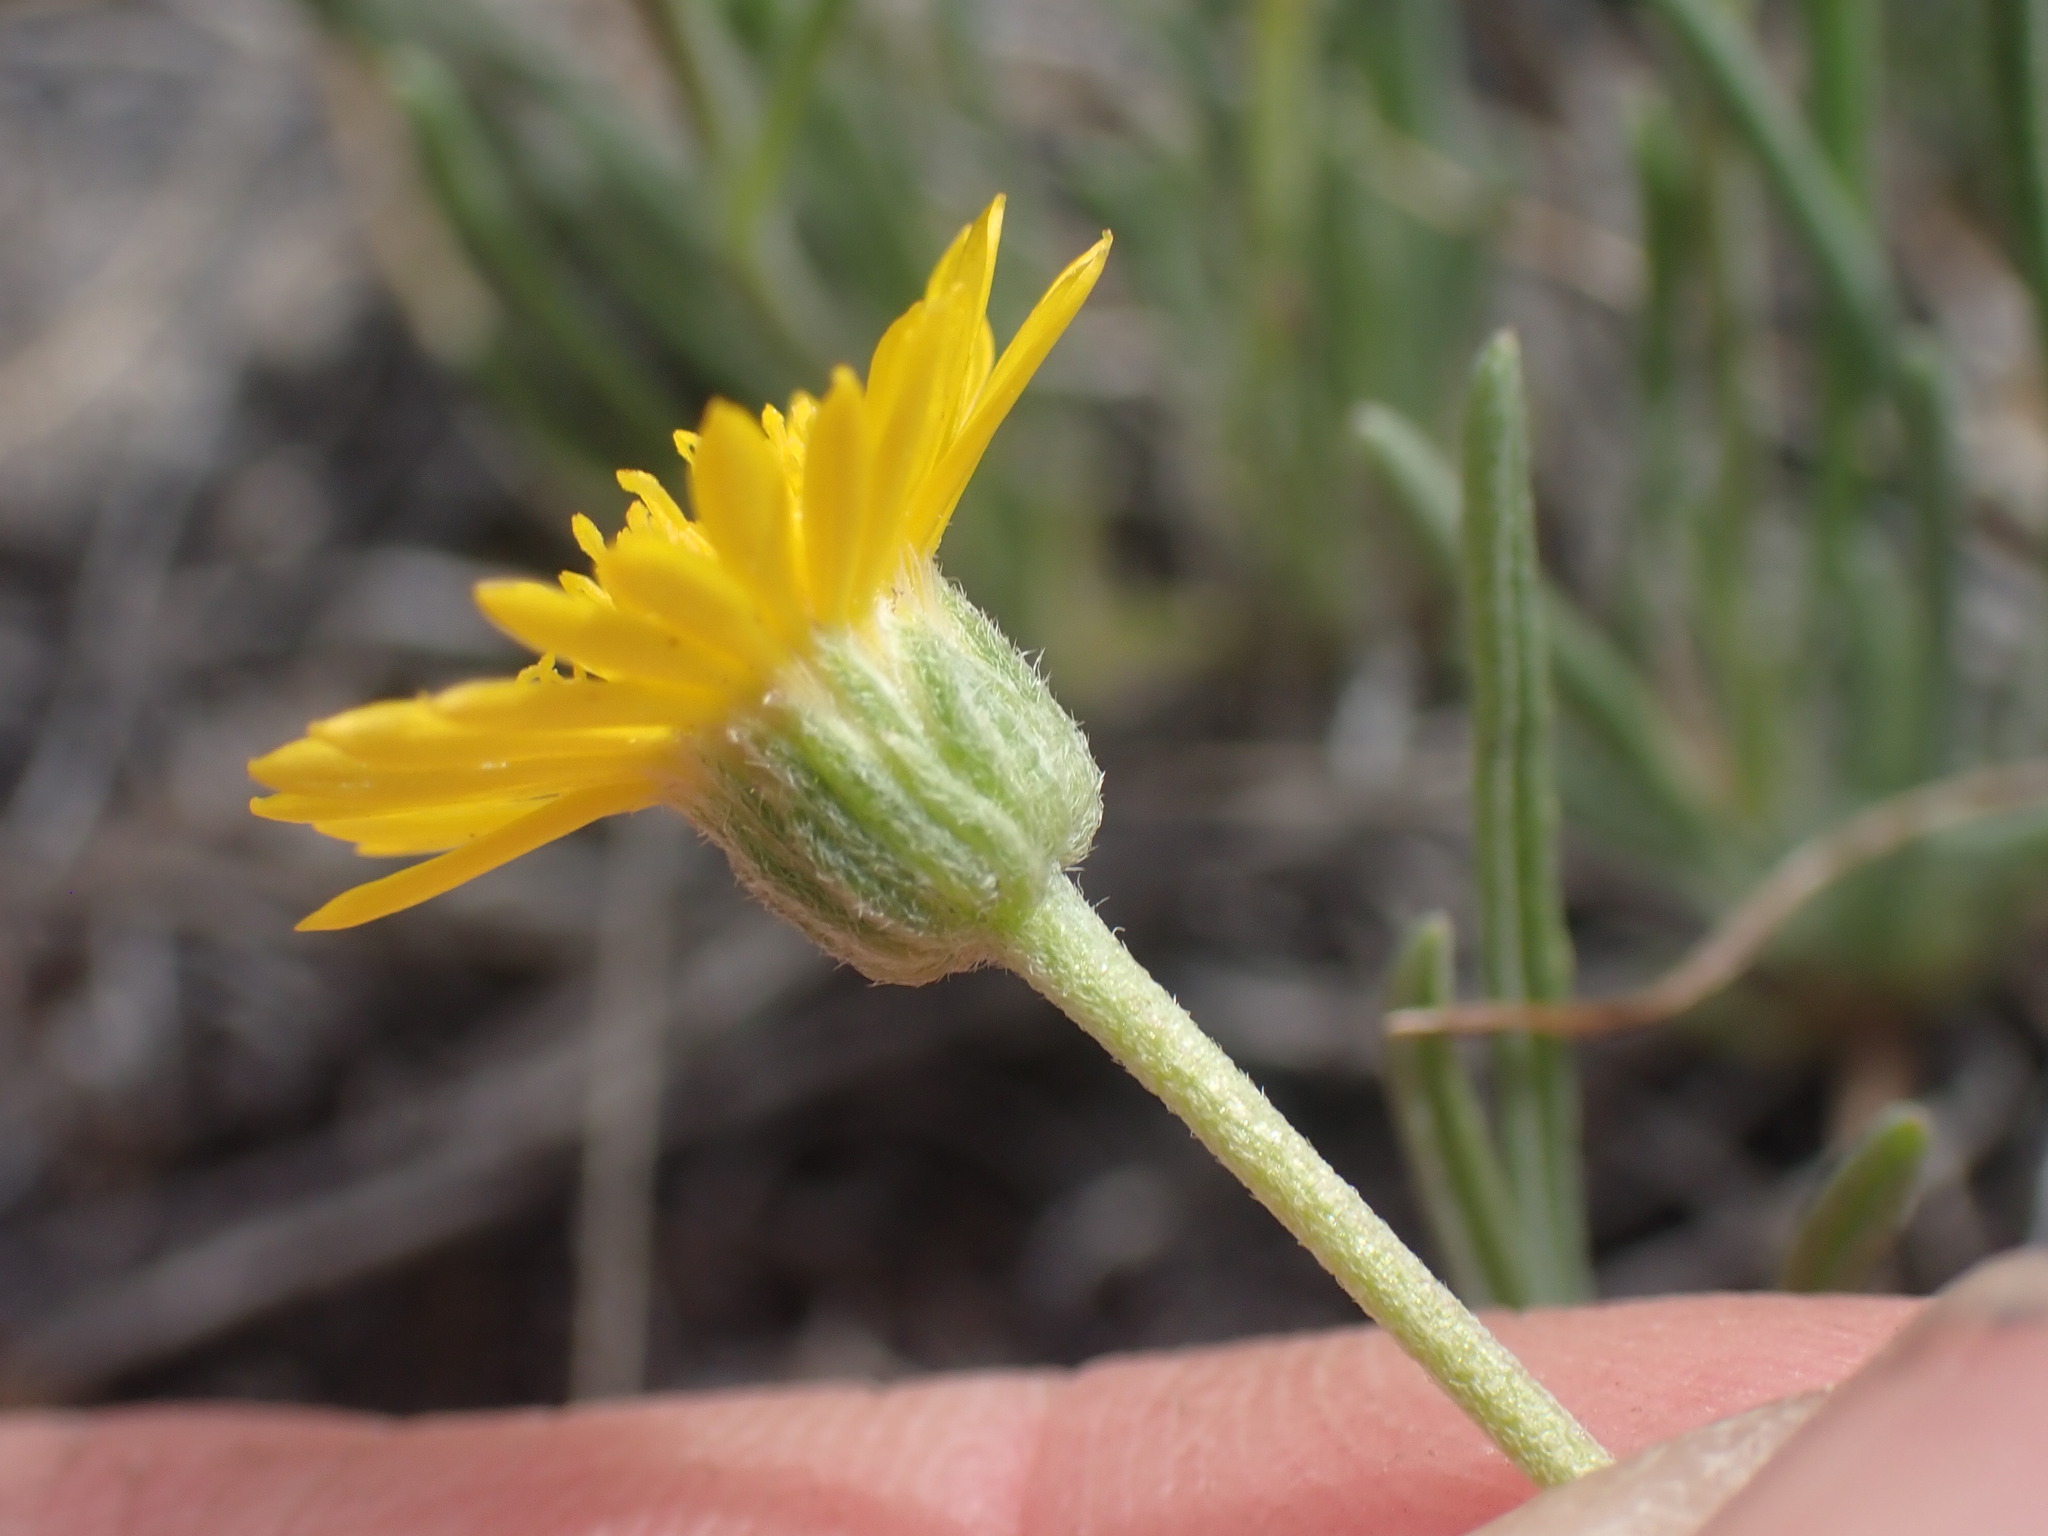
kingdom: Plantae
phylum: Tracheophyta
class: Magnoliopsida
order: Asterales
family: Asteraceae
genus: Erigeron
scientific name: Erigeron linearis
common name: Desert yellow fleabane
